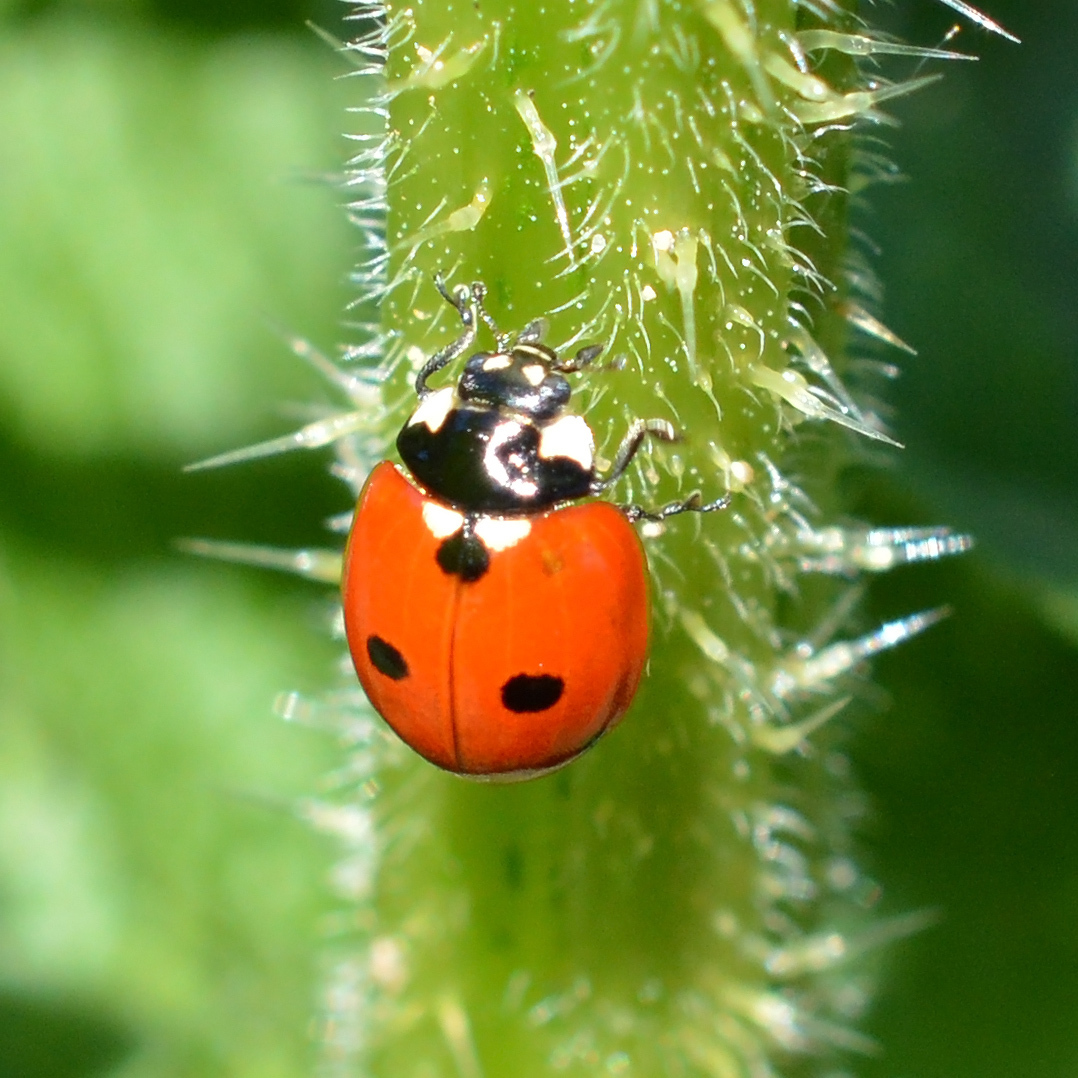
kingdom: Animalia
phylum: Arthropoda
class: Insecta
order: Coleoptera
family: Coccinellidae
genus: Coccinella
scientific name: Coccinella quinquepunctata
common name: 5-spot ladybird
